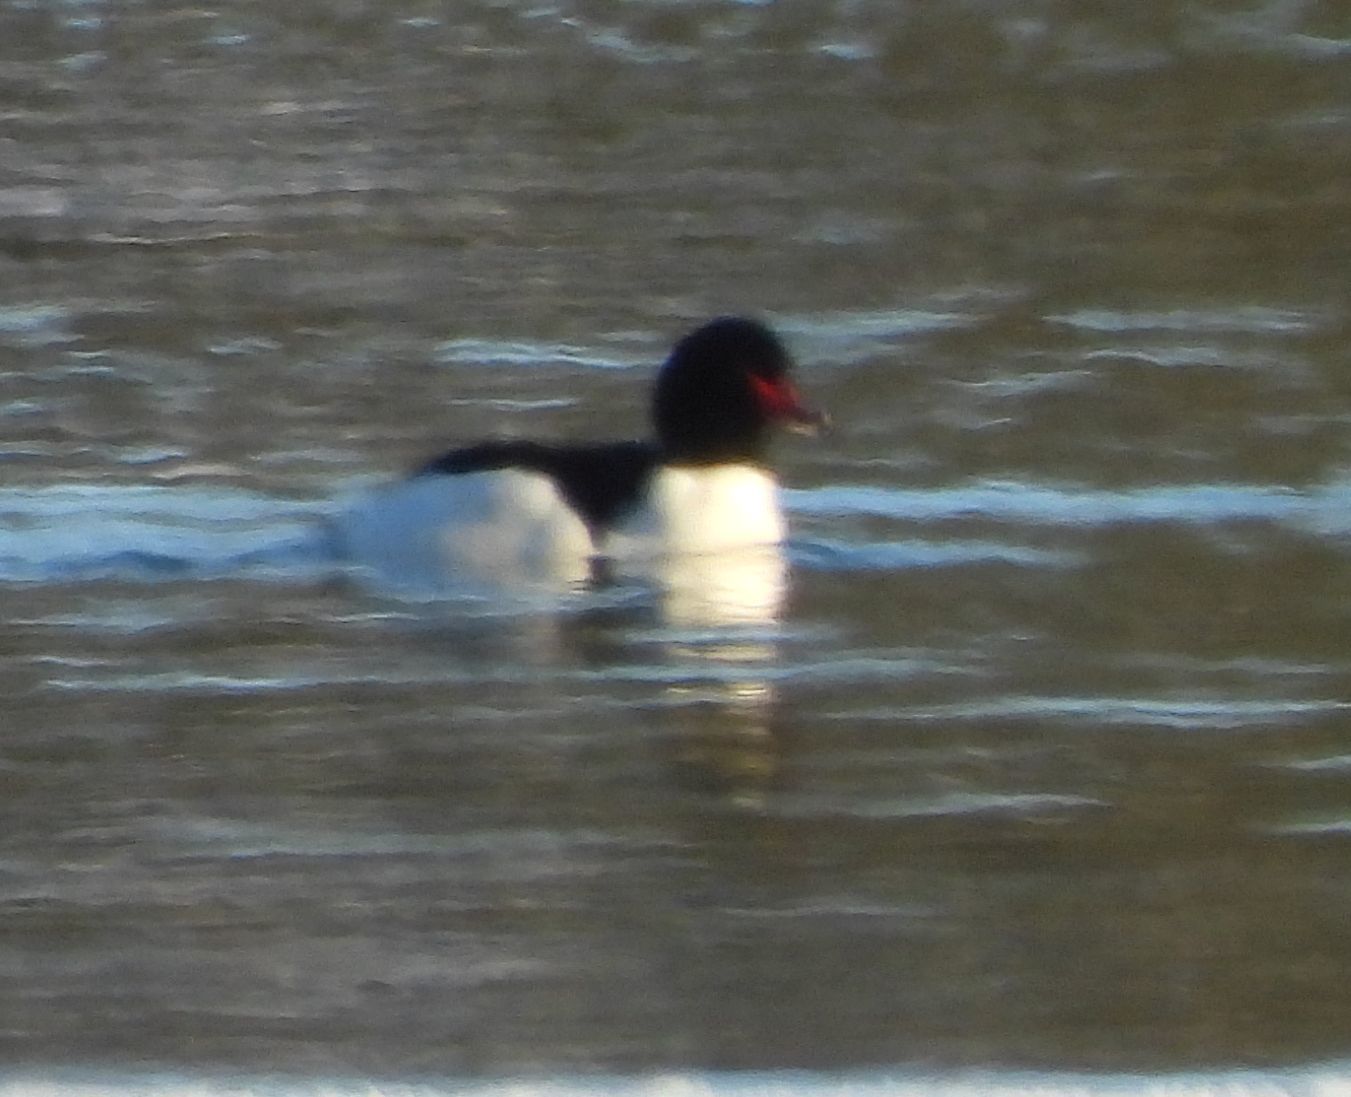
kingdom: Animalia
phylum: Chordata
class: Aves
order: Anseriformes
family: Anatidae
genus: Mergus
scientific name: Mergus merganser
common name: Common merganser
